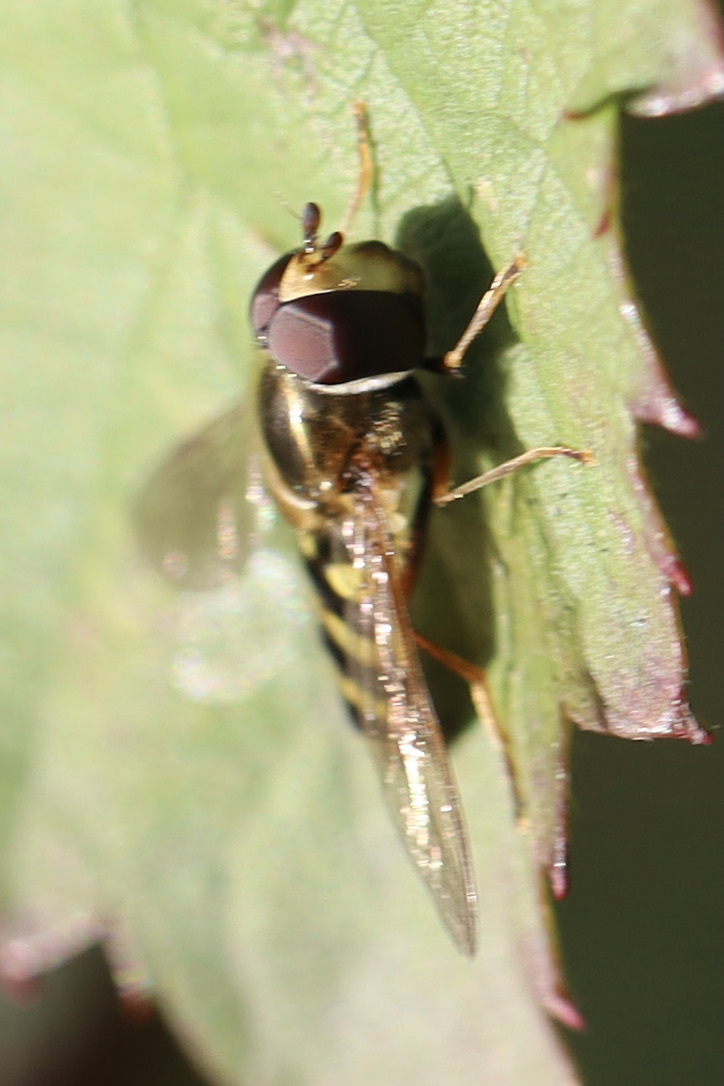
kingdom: Animalia
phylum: Arthropoda
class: Insecta
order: Diptera
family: Syrphidae
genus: Eupeodes
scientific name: Eupeodes fumipennis
